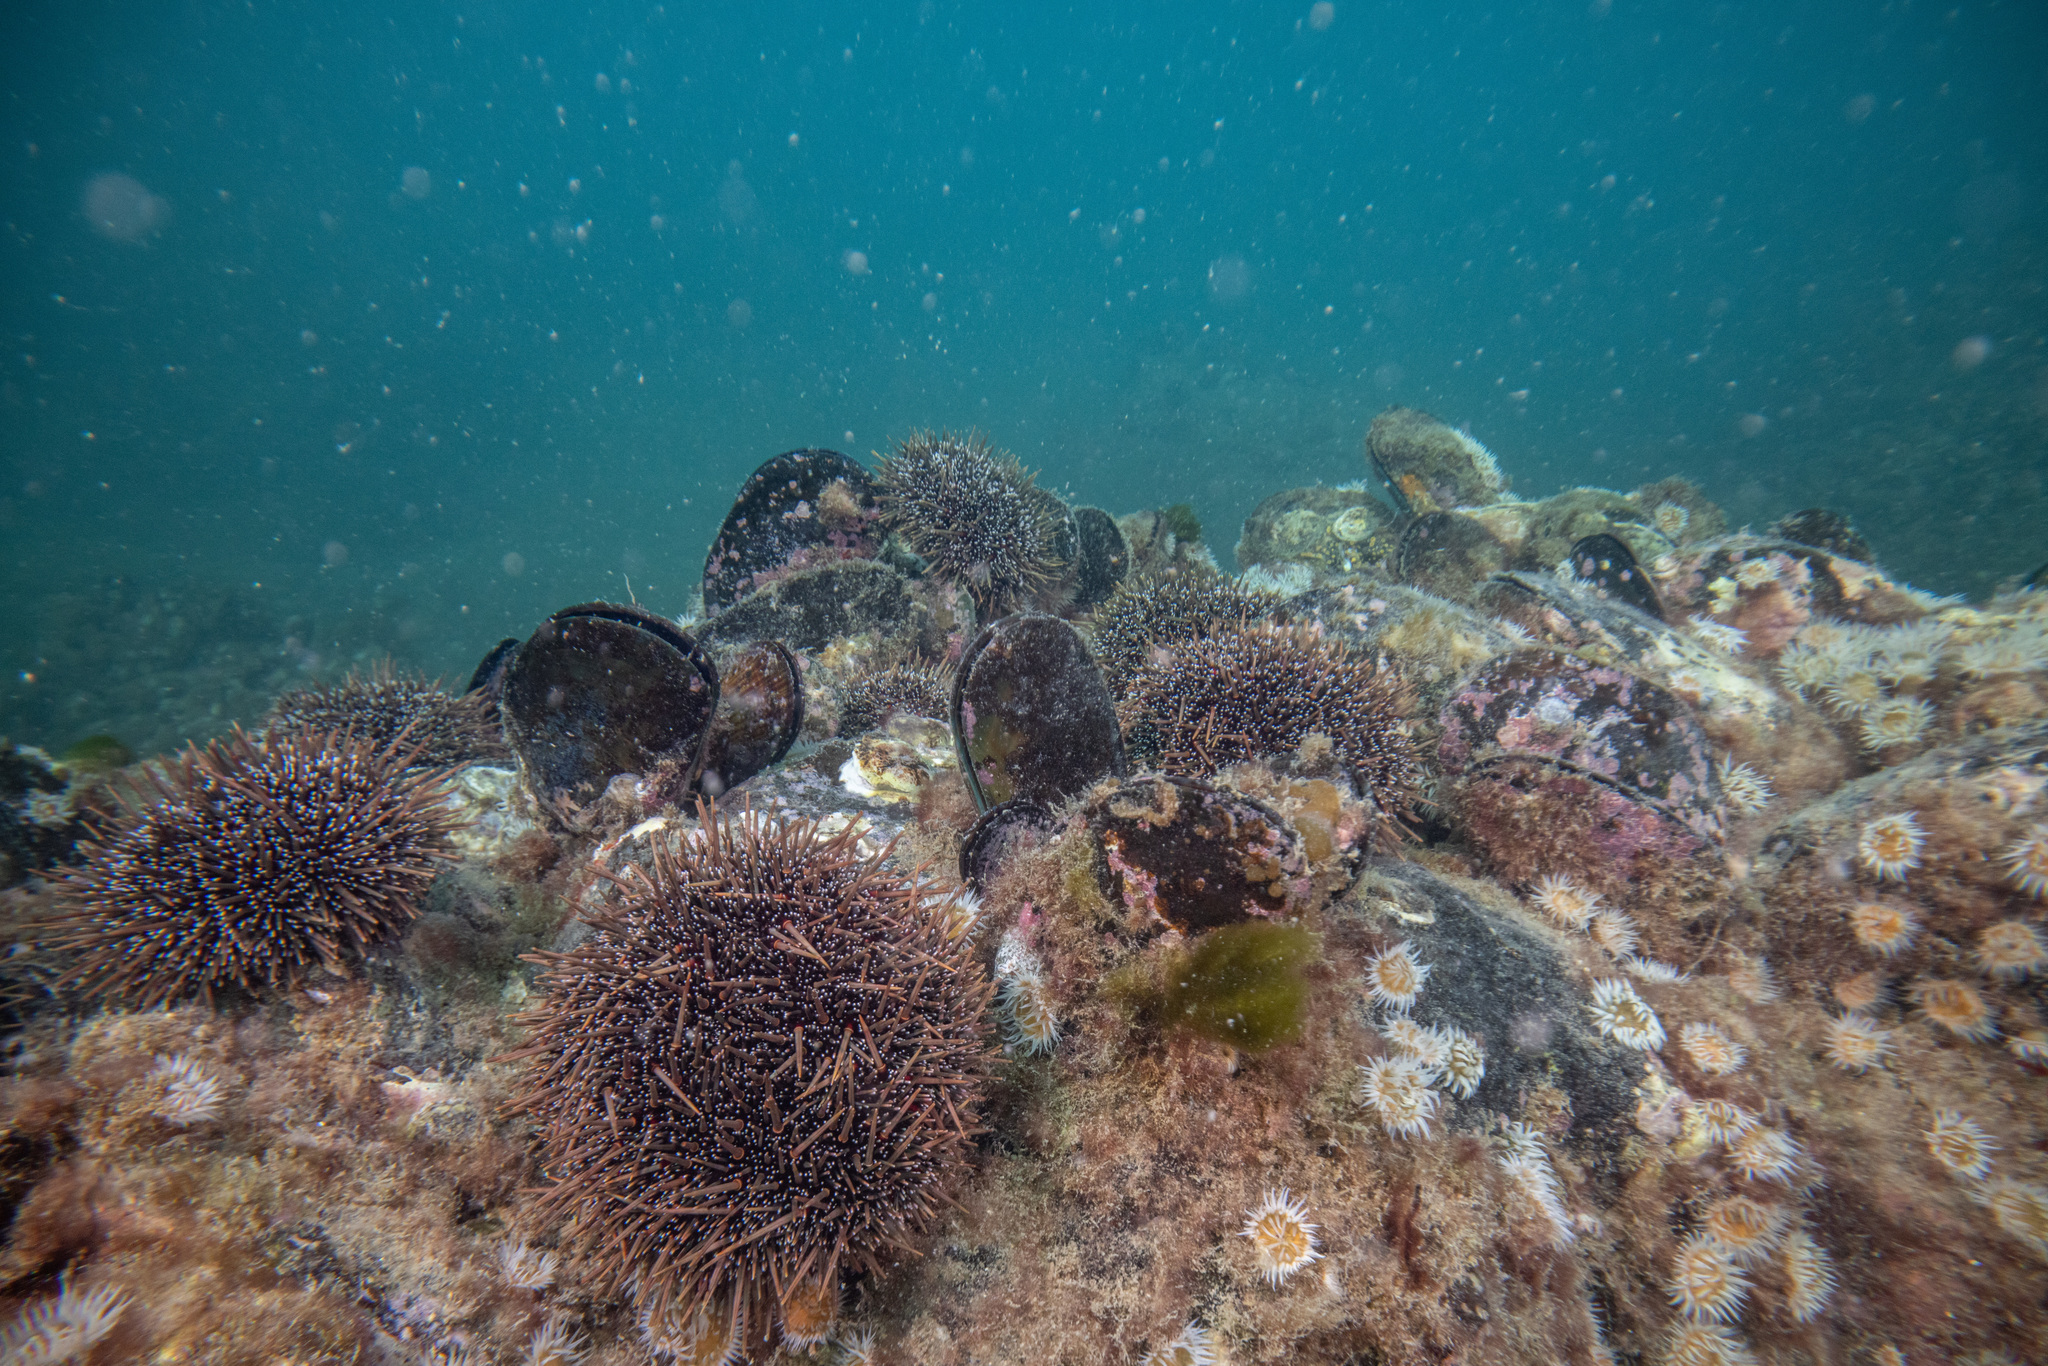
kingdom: Animalia
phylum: Echinodermata
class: Echinoidea
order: Camarodonta
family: Echinometridae
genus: Evechinus
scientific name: Evechinus chloroticus
